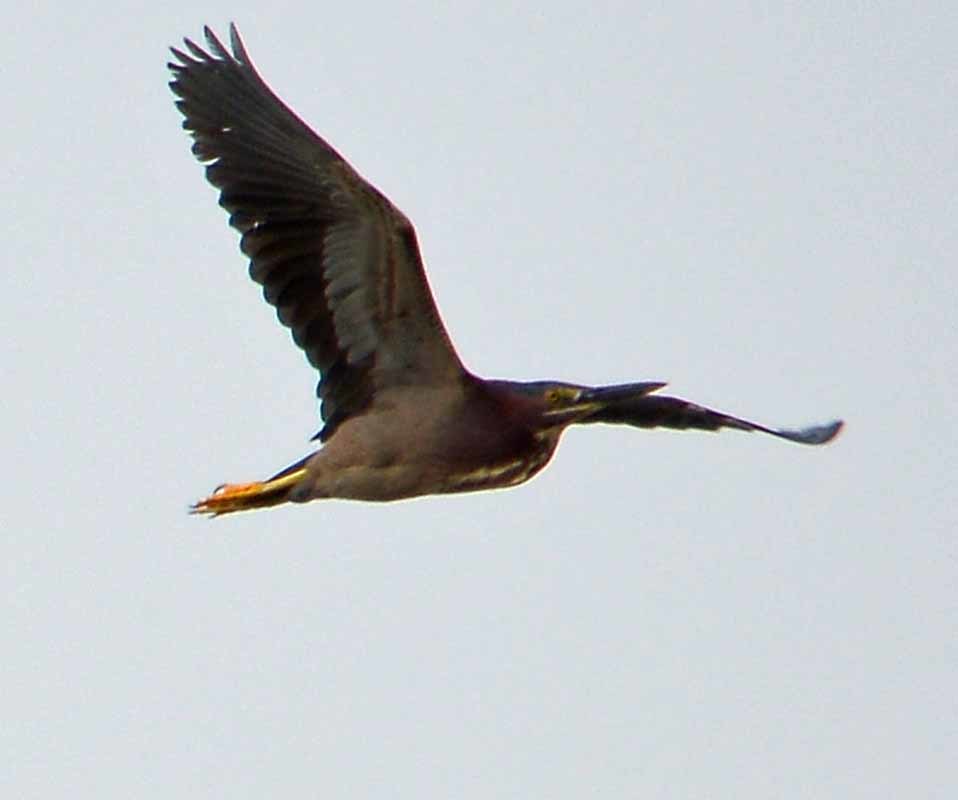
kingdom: Animalia
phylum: Chordata
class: Aves
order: Pelecaniformes
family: Ardeidae
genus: Butorides
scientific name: Butorides virescens
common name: Green heron
